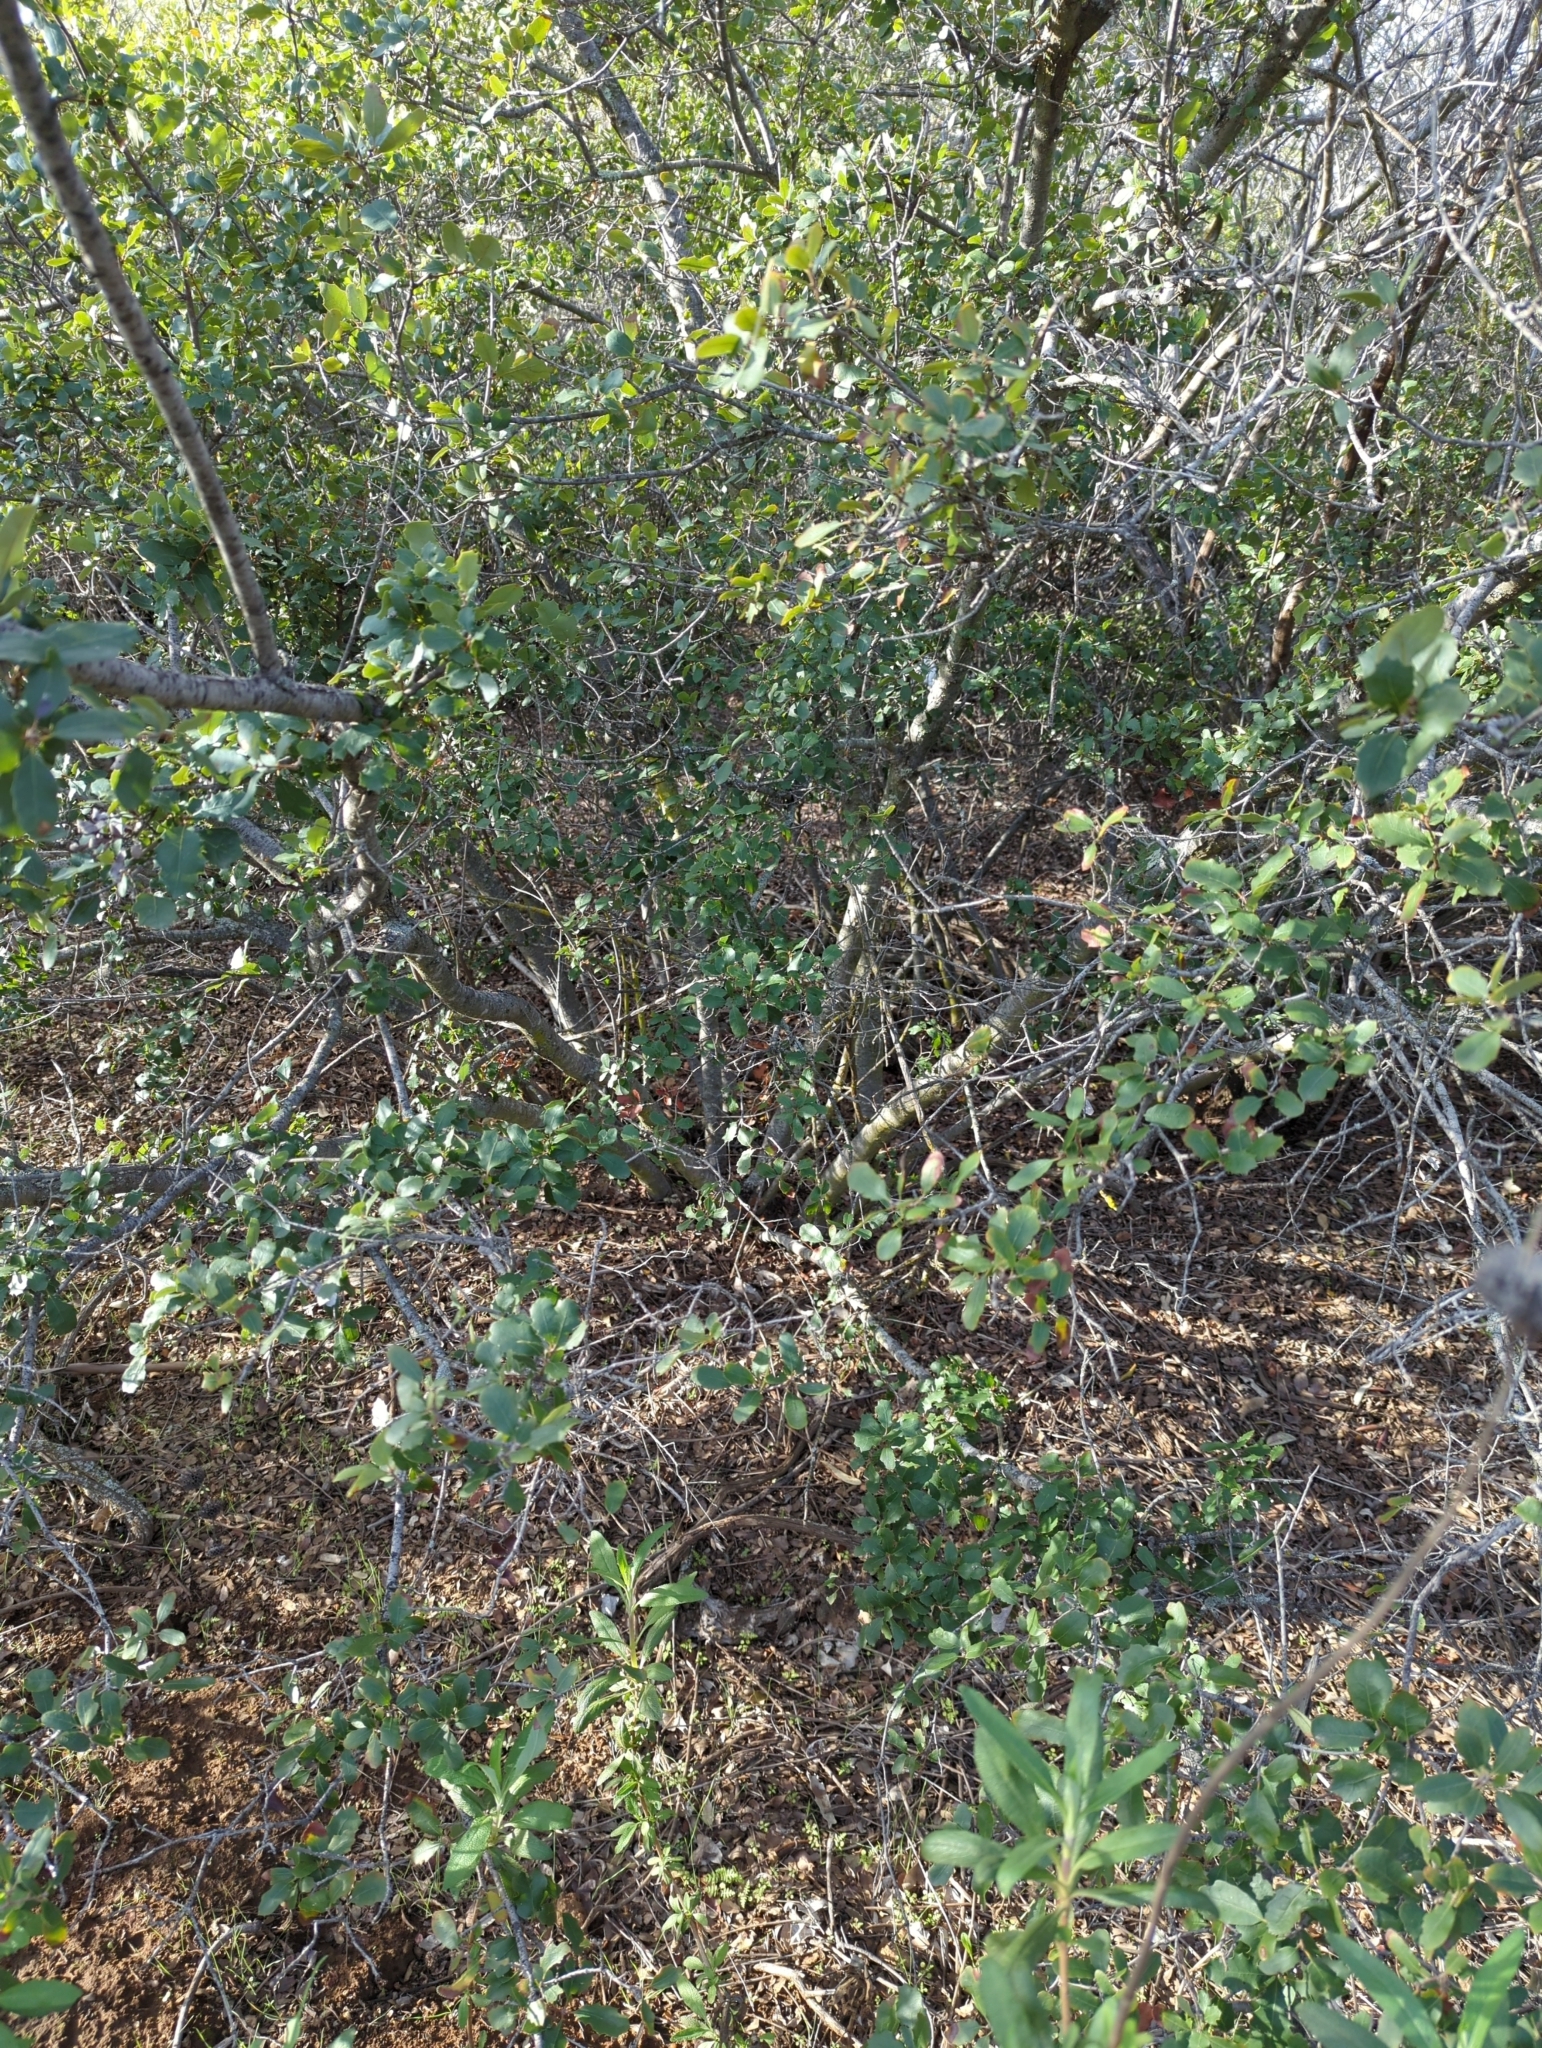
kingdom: Plantae
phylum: Tracheophyta
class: Magnoliopsida
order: Fagales
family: Fagaceae
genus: Quercus
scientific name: Quercus
